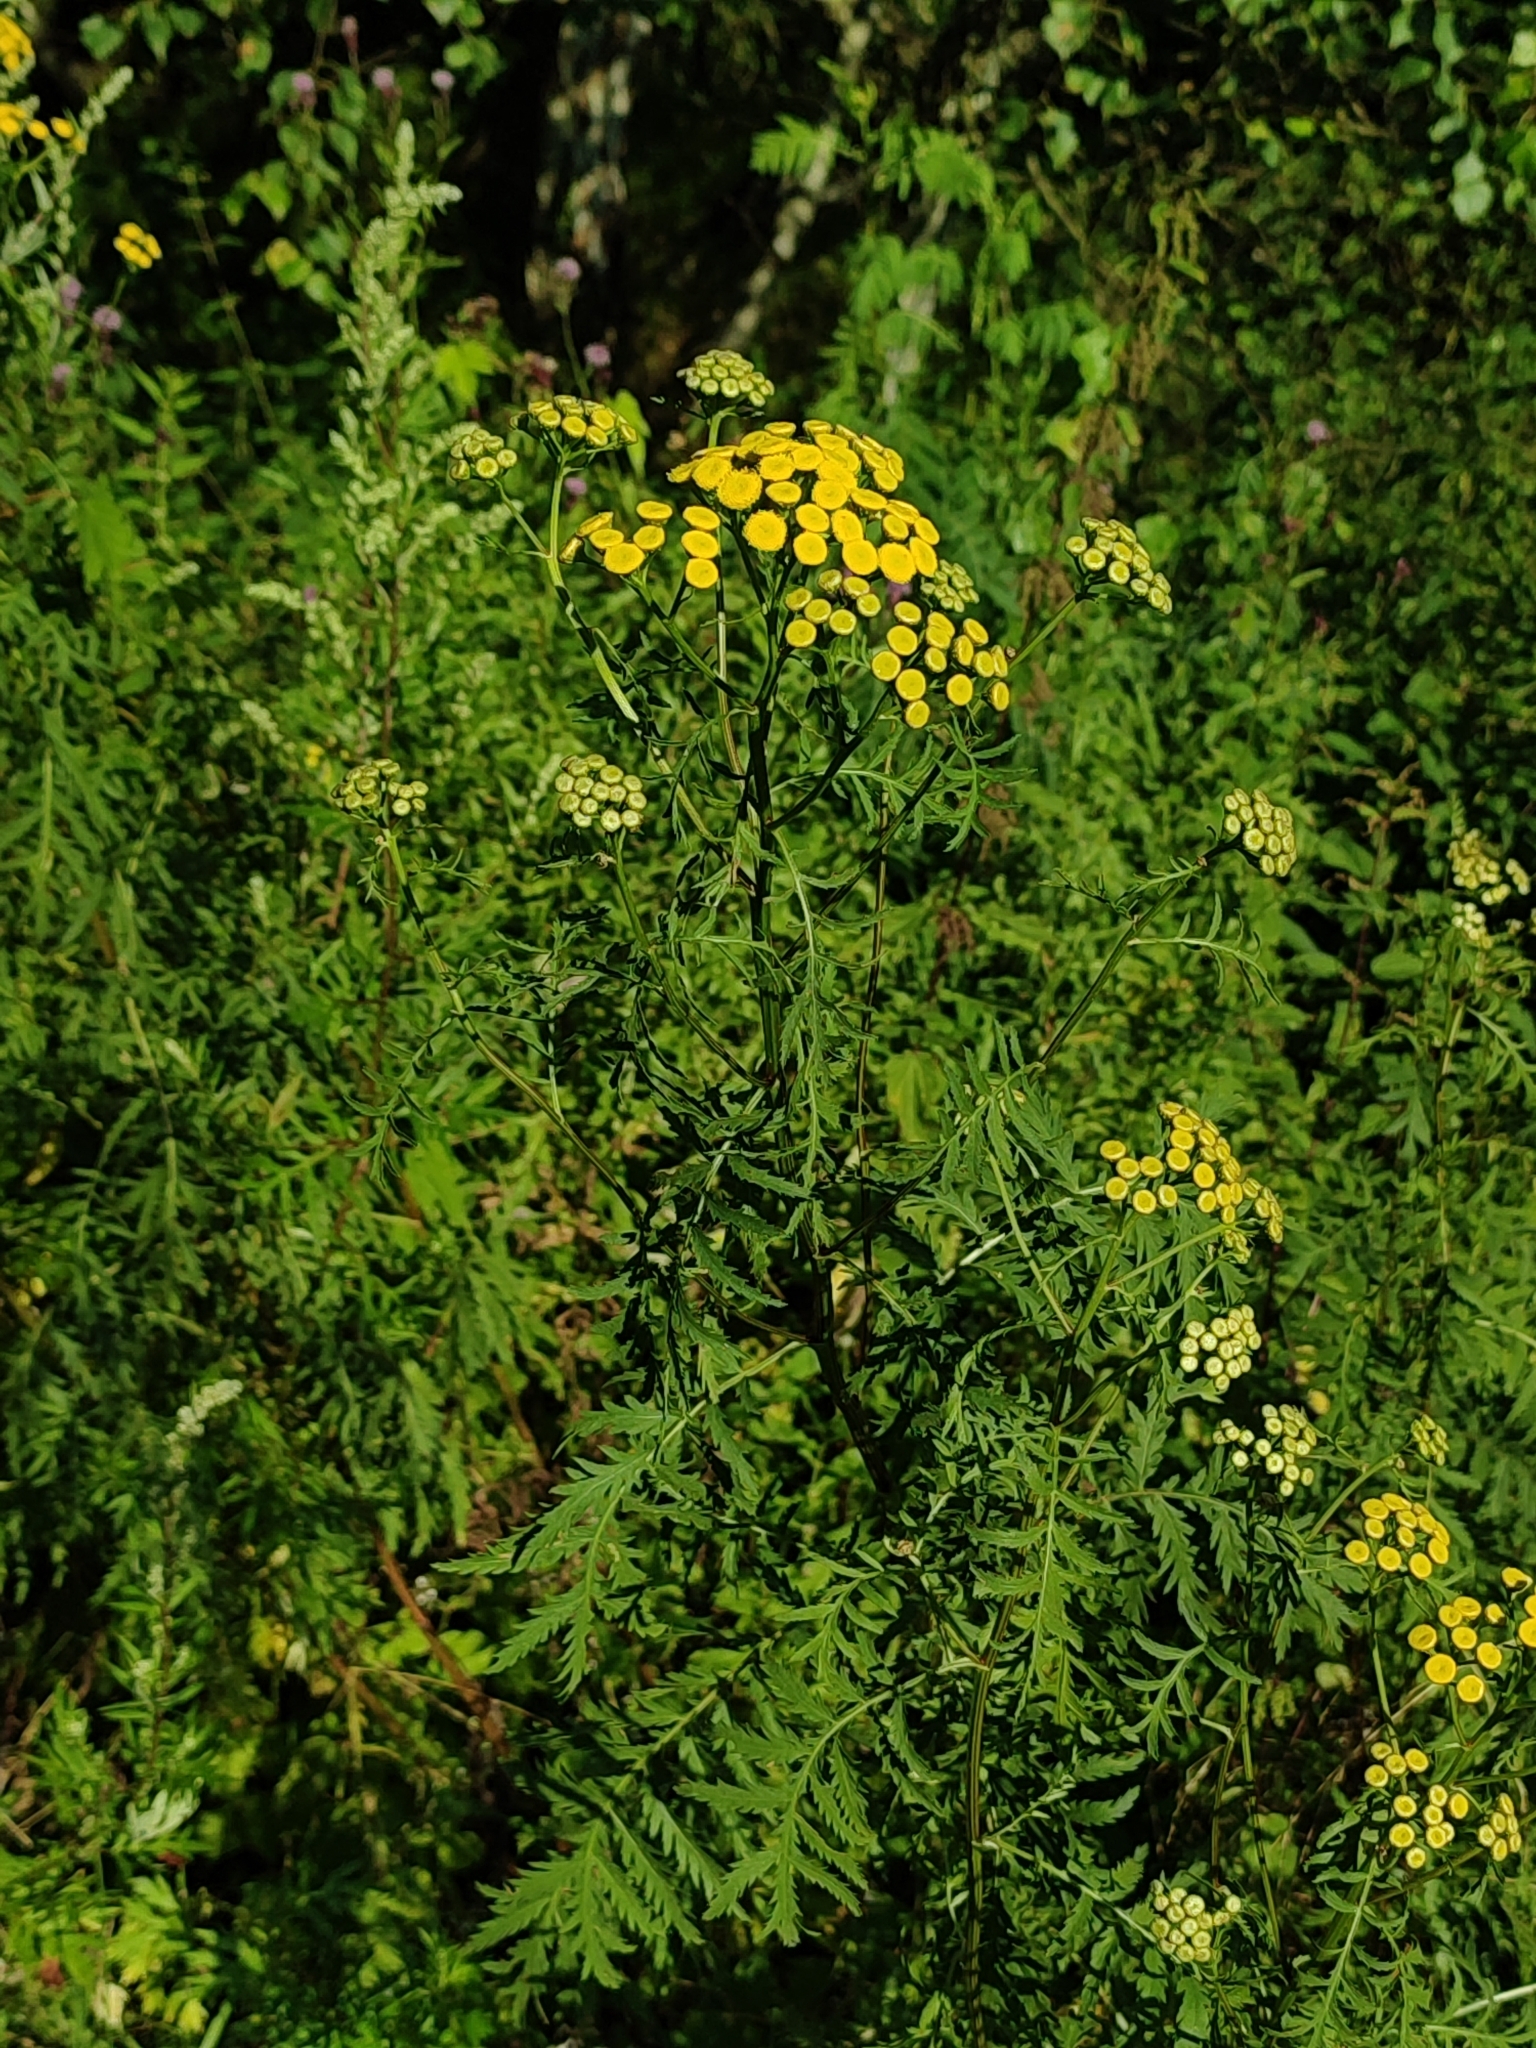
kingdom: Plantae
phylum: Tracheophyta
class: Magnoliopsida
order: Asterales
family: Asteraceae
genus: Tanacetum
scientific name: Tanacetum vulgare
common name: Common tansy
